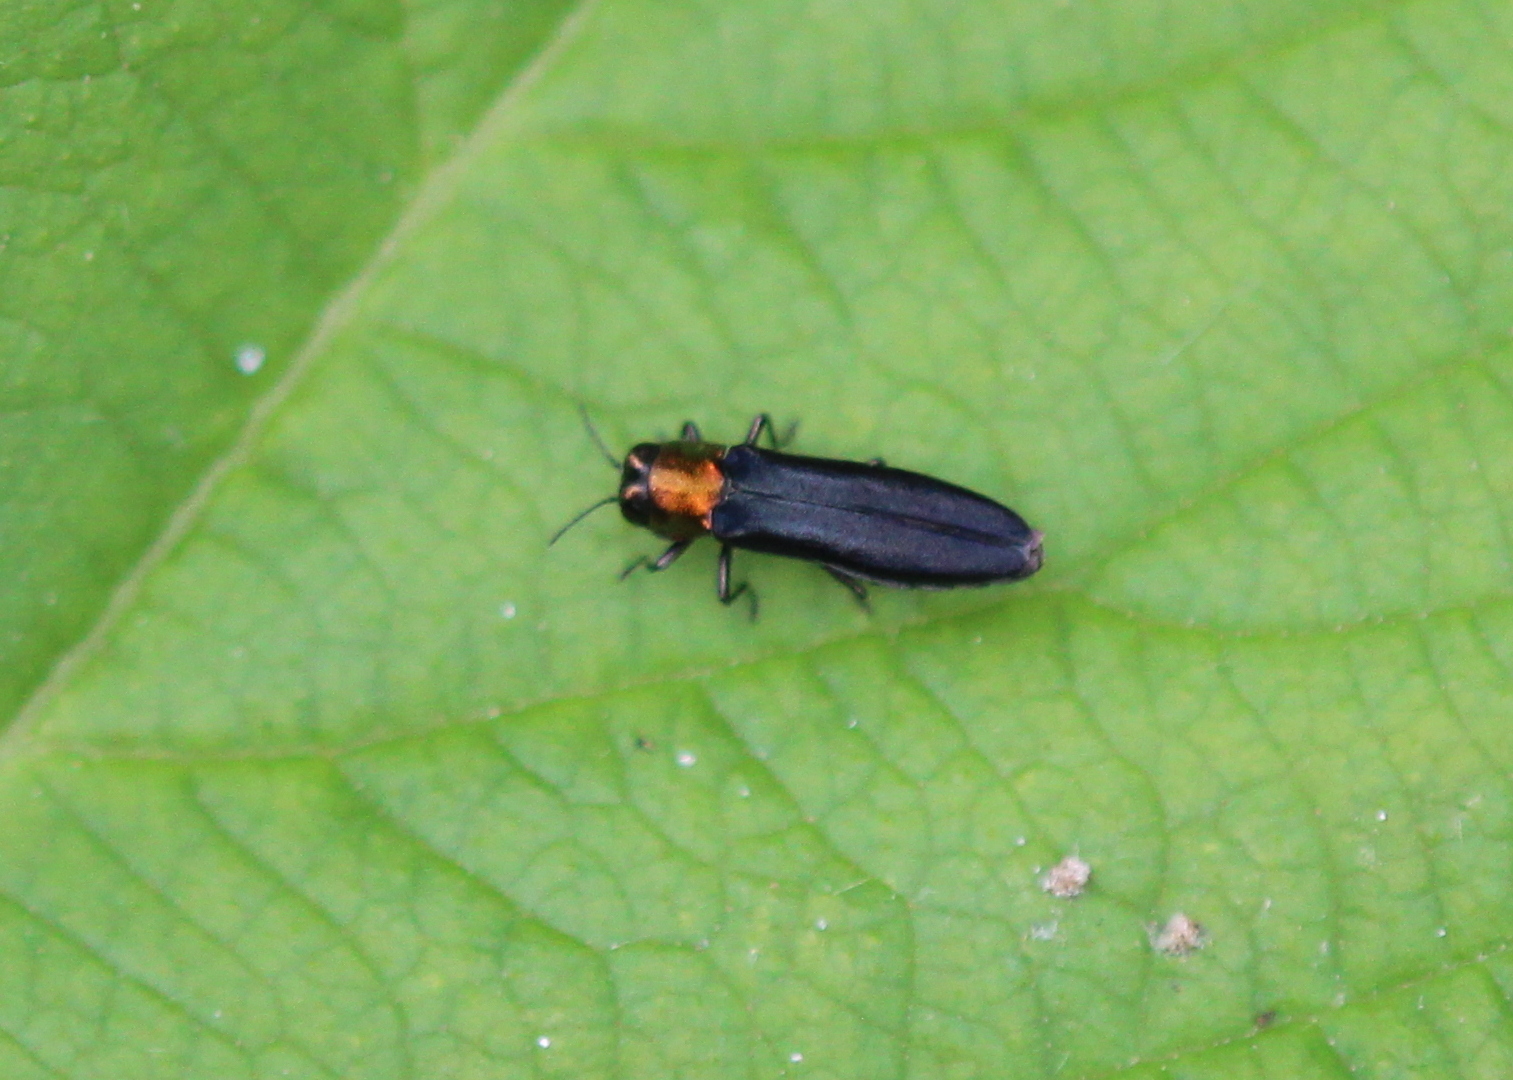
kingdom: Animalia
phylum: Arthropoda
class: Insecta
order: Coleoptera
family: Buprestidae
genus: Agrilus
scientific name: Agrilus ruficollis
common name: Red-necked cane borer beetle
